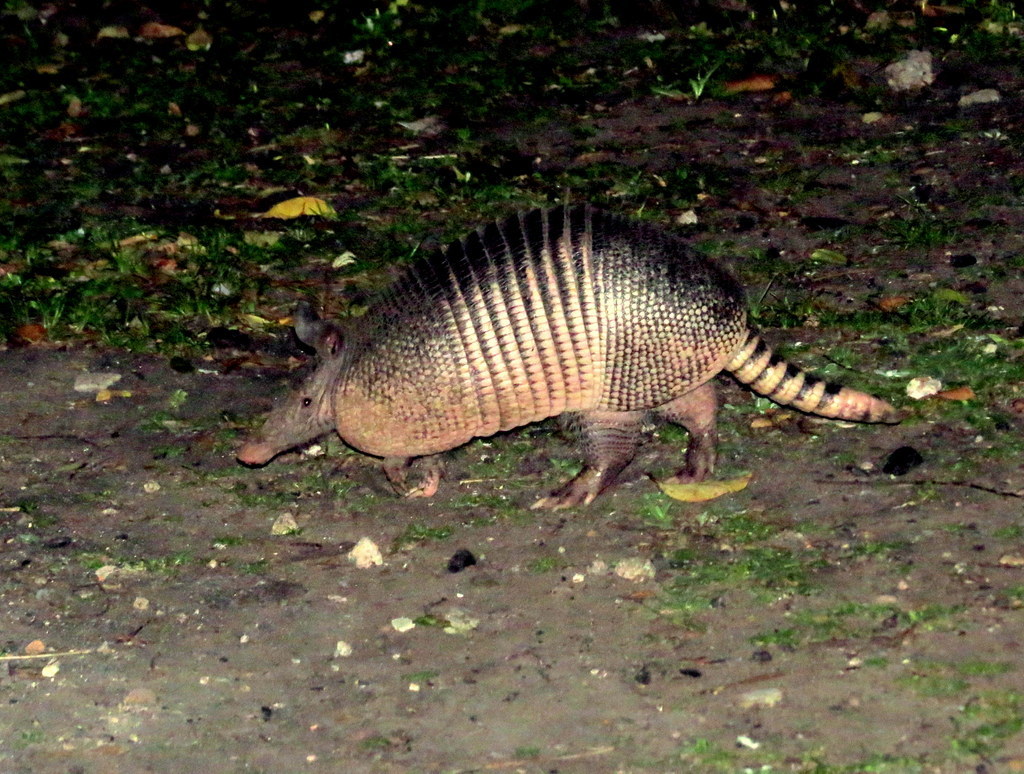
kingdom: Animalia
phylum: Chordata
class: Mammalia
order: Cingulata
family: Dasypodidae
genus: Dasypus
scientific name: Dasypus novemcinctus
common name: Nine-banded armadillo
